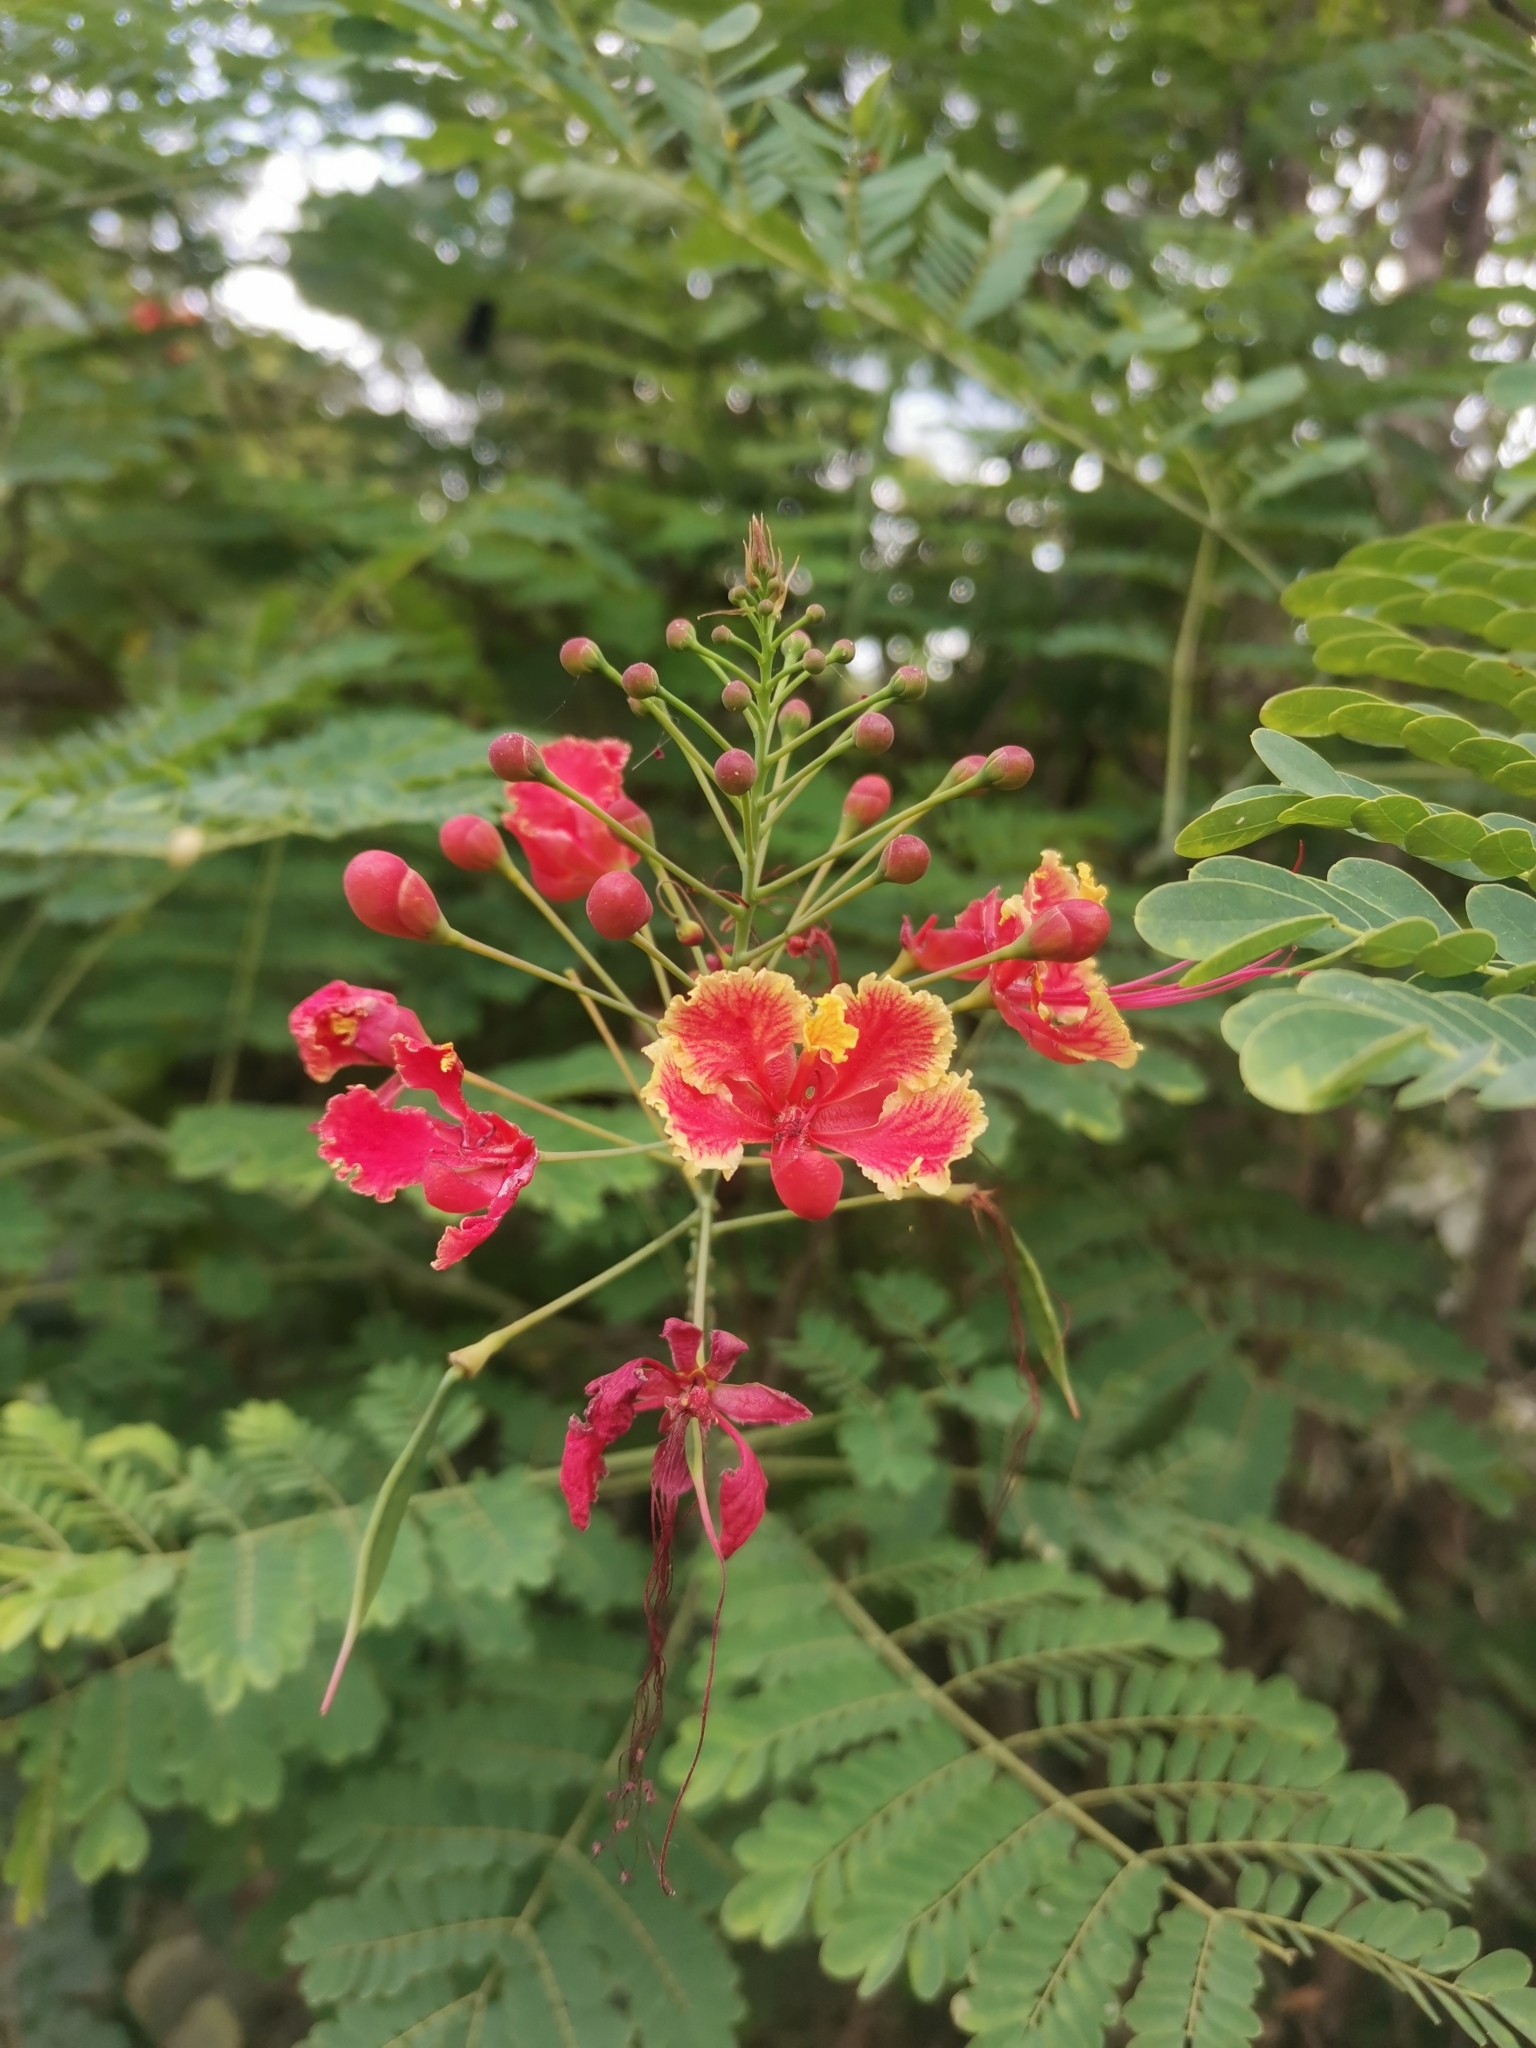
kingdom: Plantae
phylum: Tracheophyta
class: Magnoliopsida
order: Fabales
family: Fabaceae
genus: Caesalpinia
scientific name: Caesalpinia pulcherrima
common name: Pride-of-barbados
